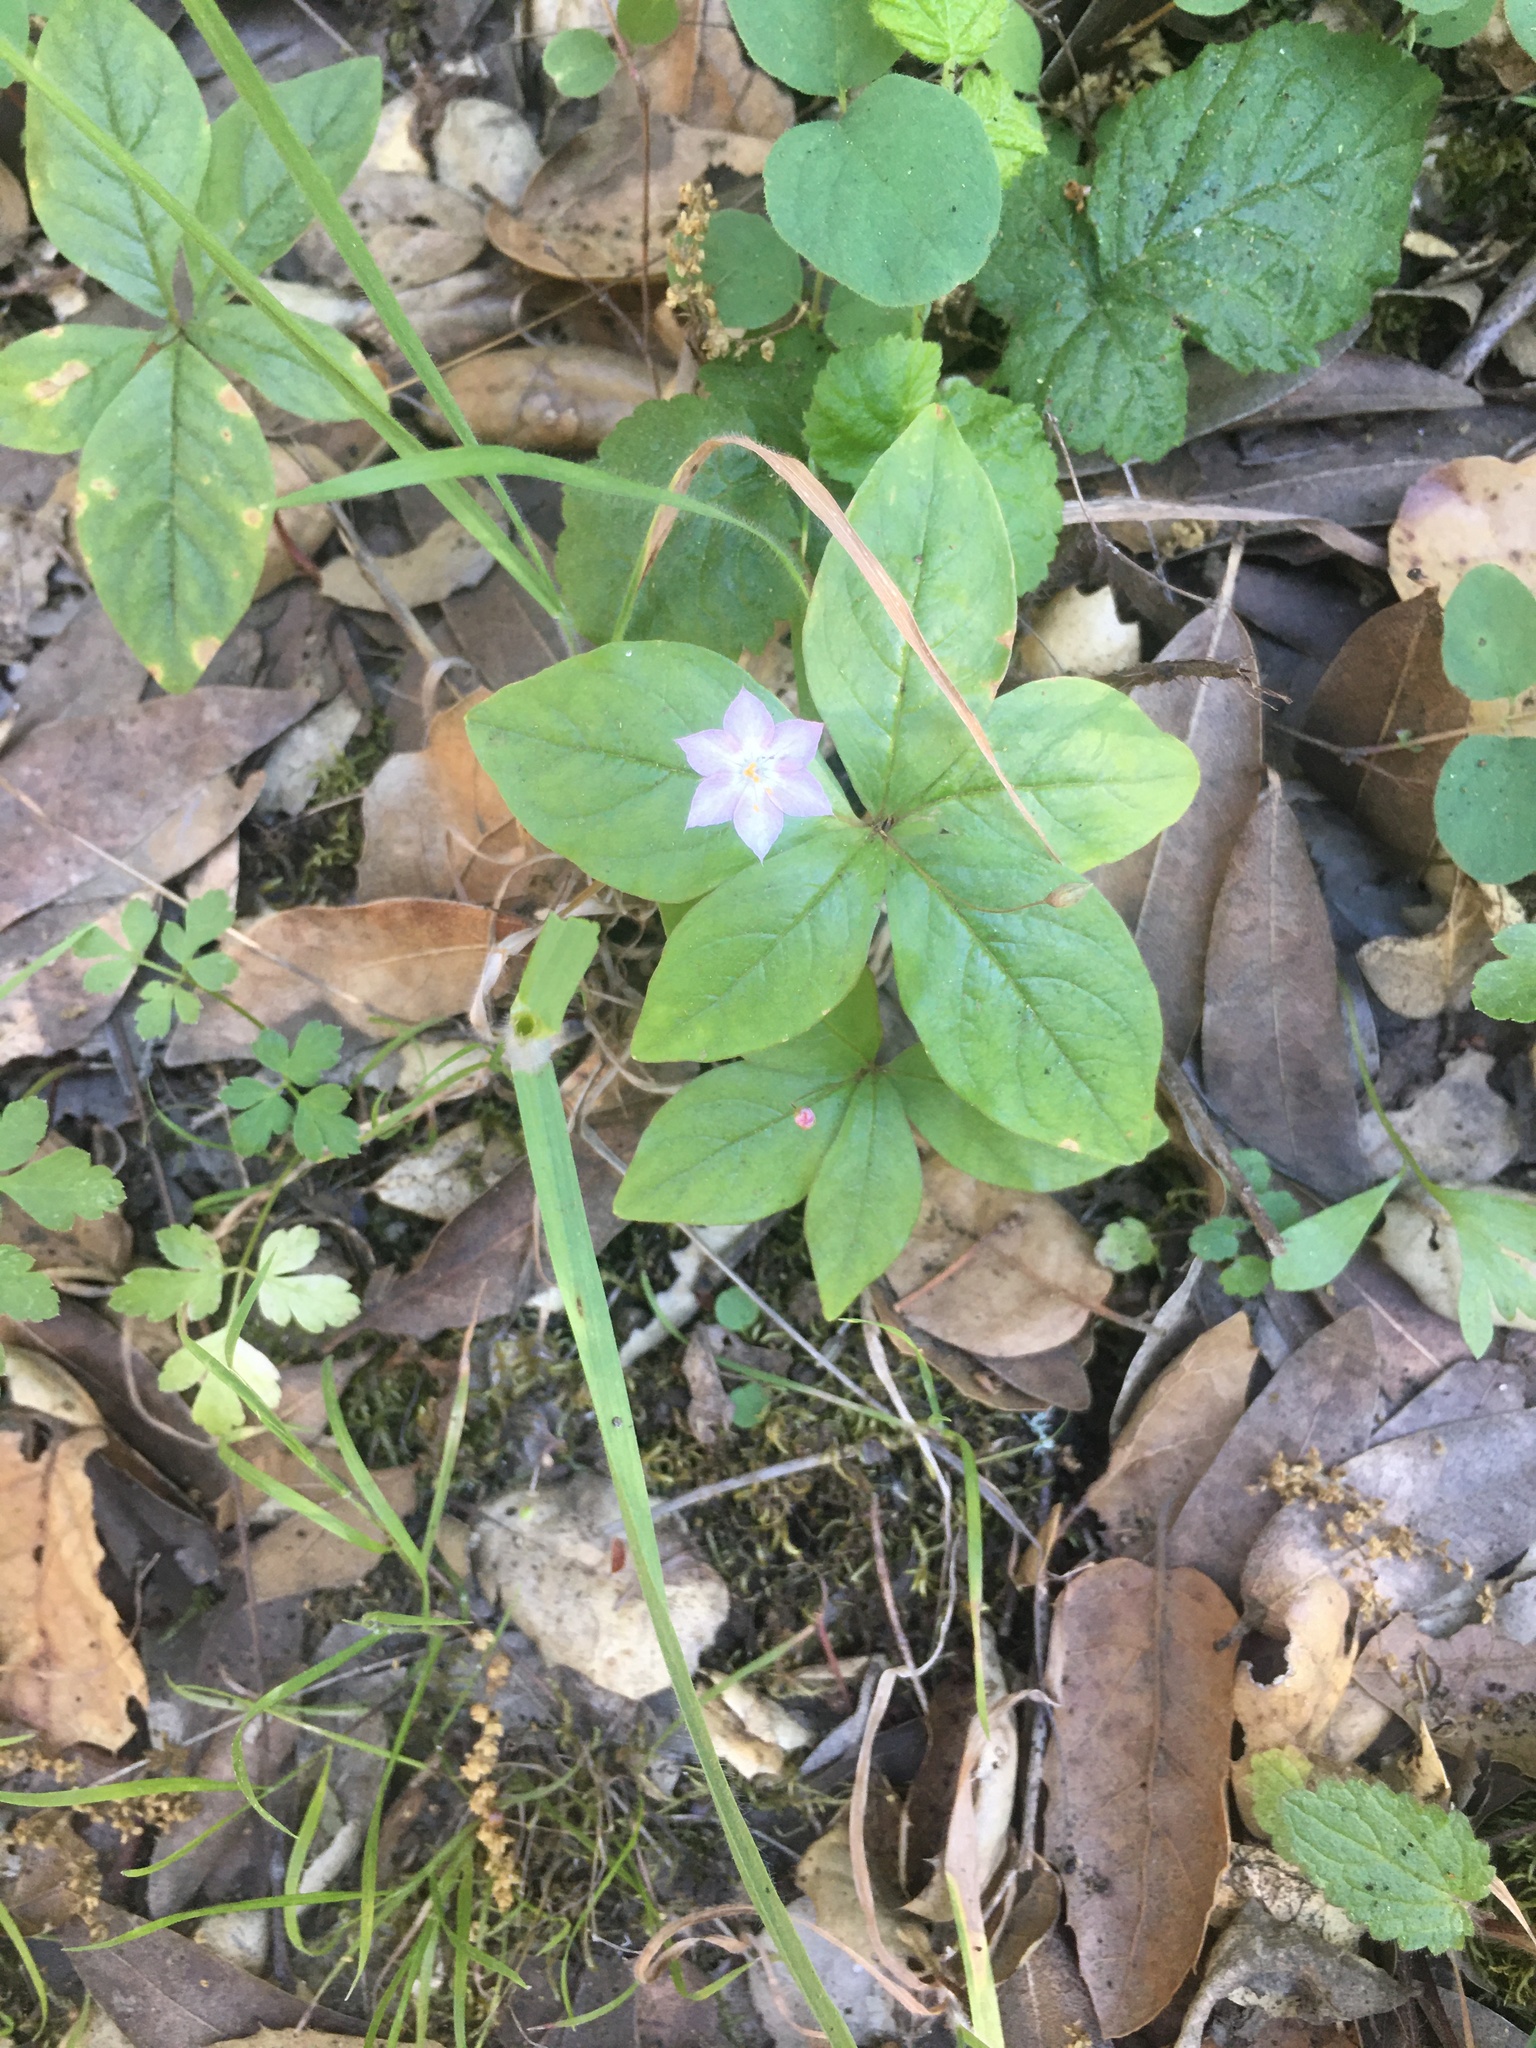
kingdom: Plantae
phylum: Tracheophyta
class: Magnoliopsida
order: Ericales
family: Primulaceae
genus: Lysimachia
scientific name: Lysimachia latifolia
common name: Pacific starflower
